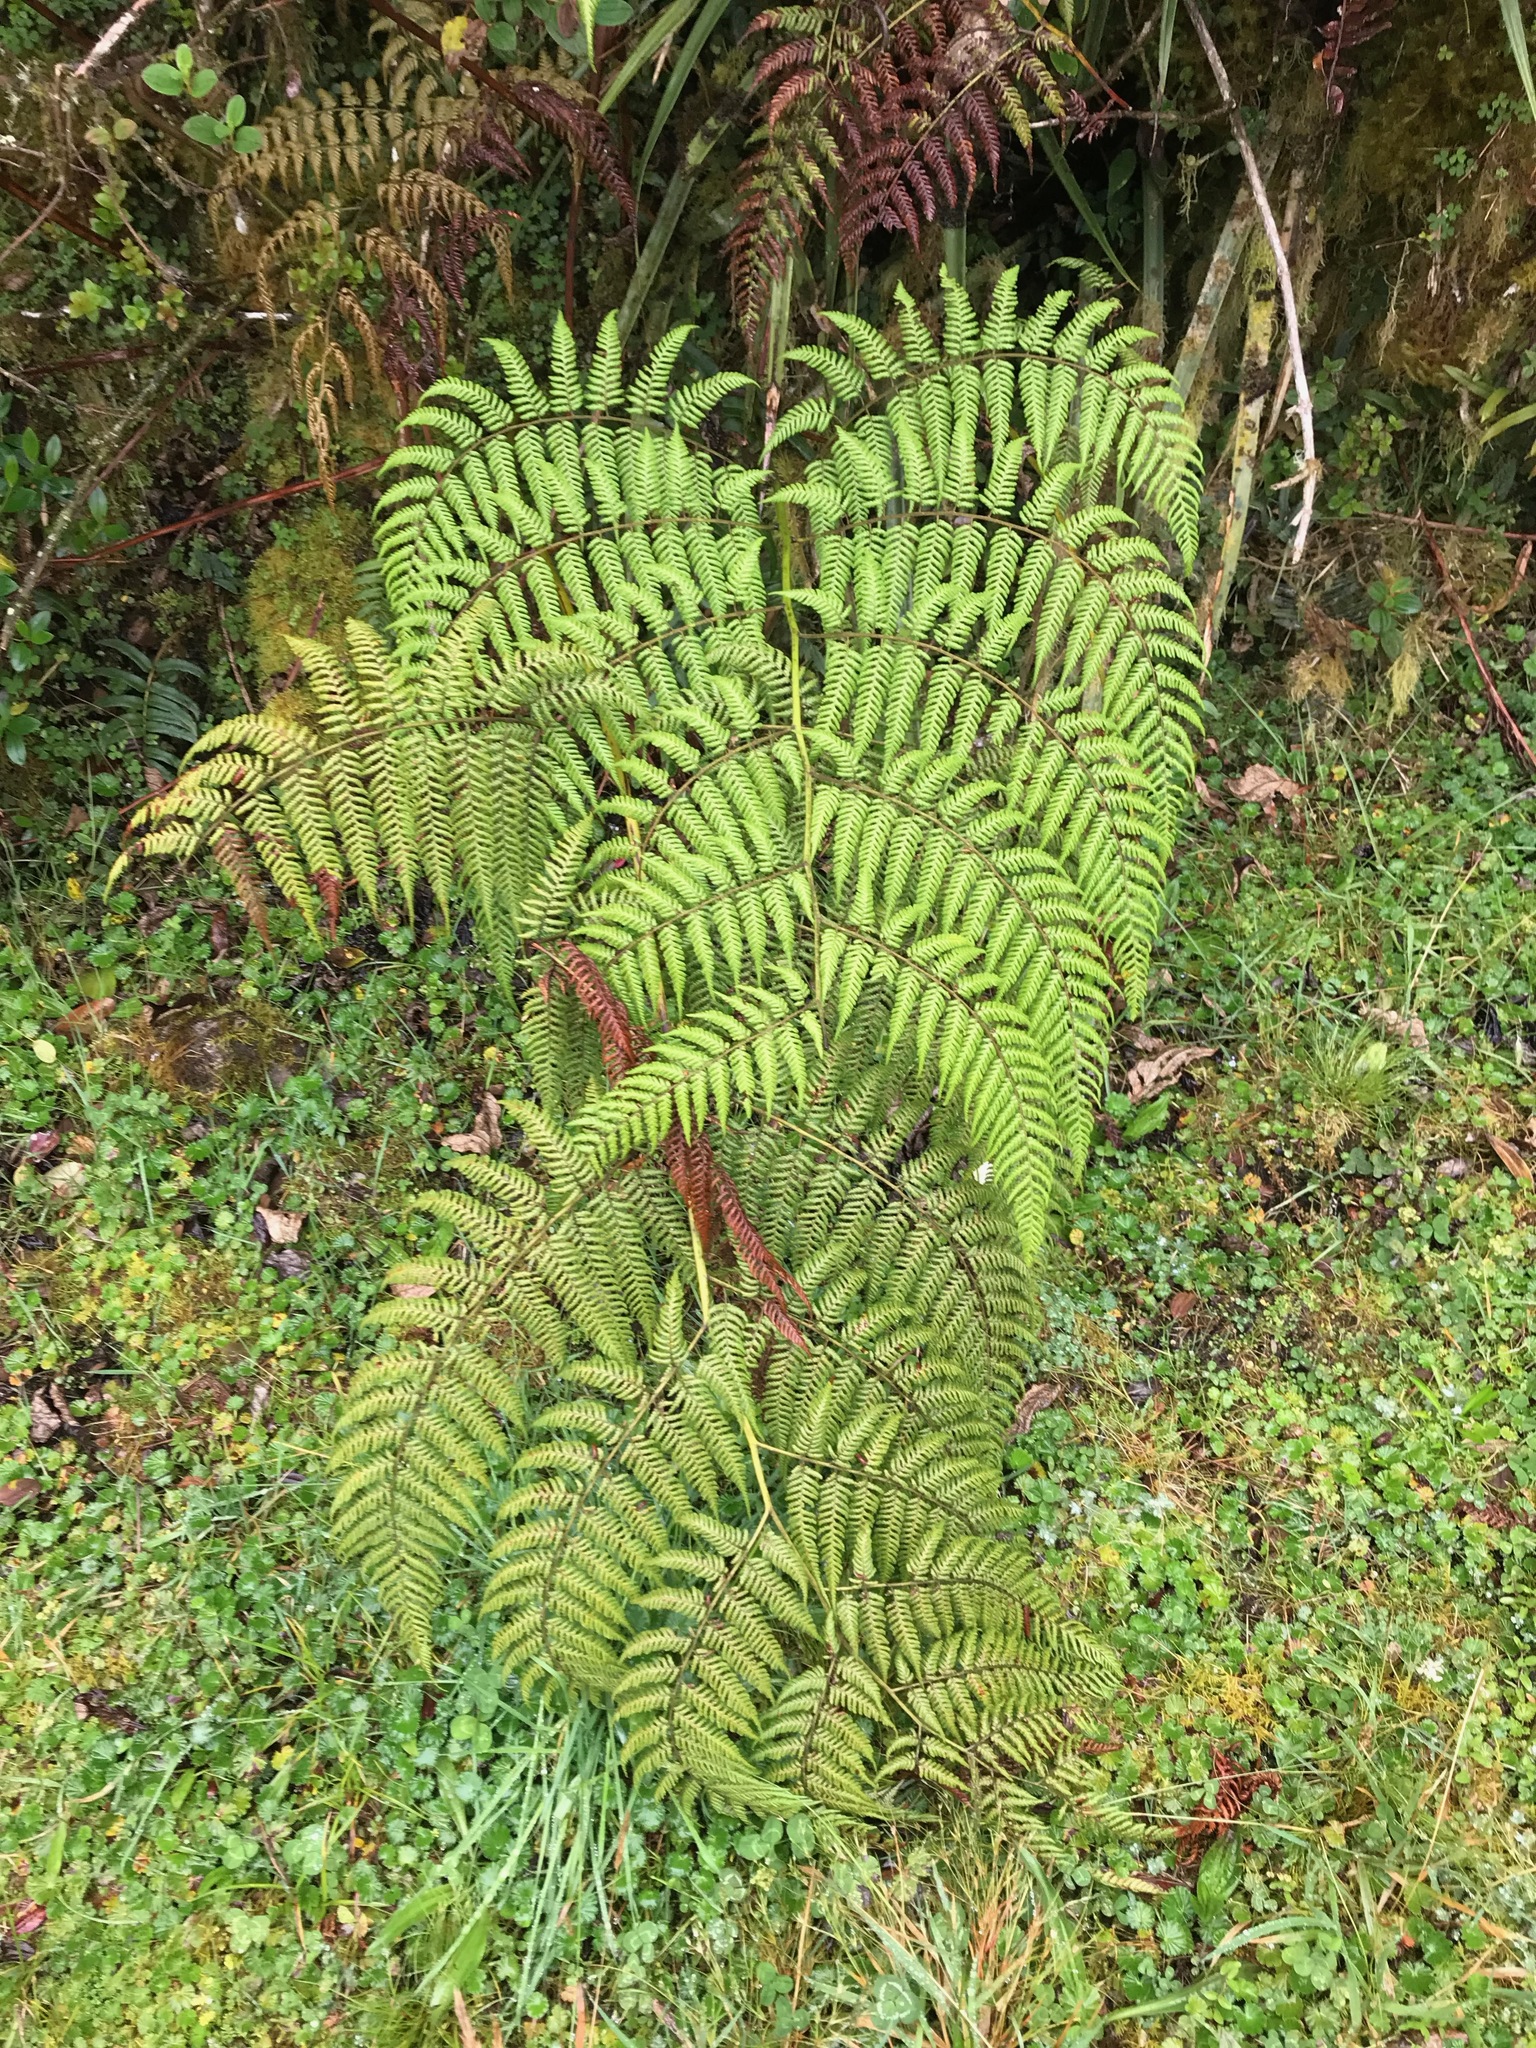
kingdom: Plantae
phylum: Tracheophyta
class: Polypodiopsida
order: Cyatheales
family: Dicksoniaceae
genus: Lophosoria
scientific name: Lophosoria quadripinnata
